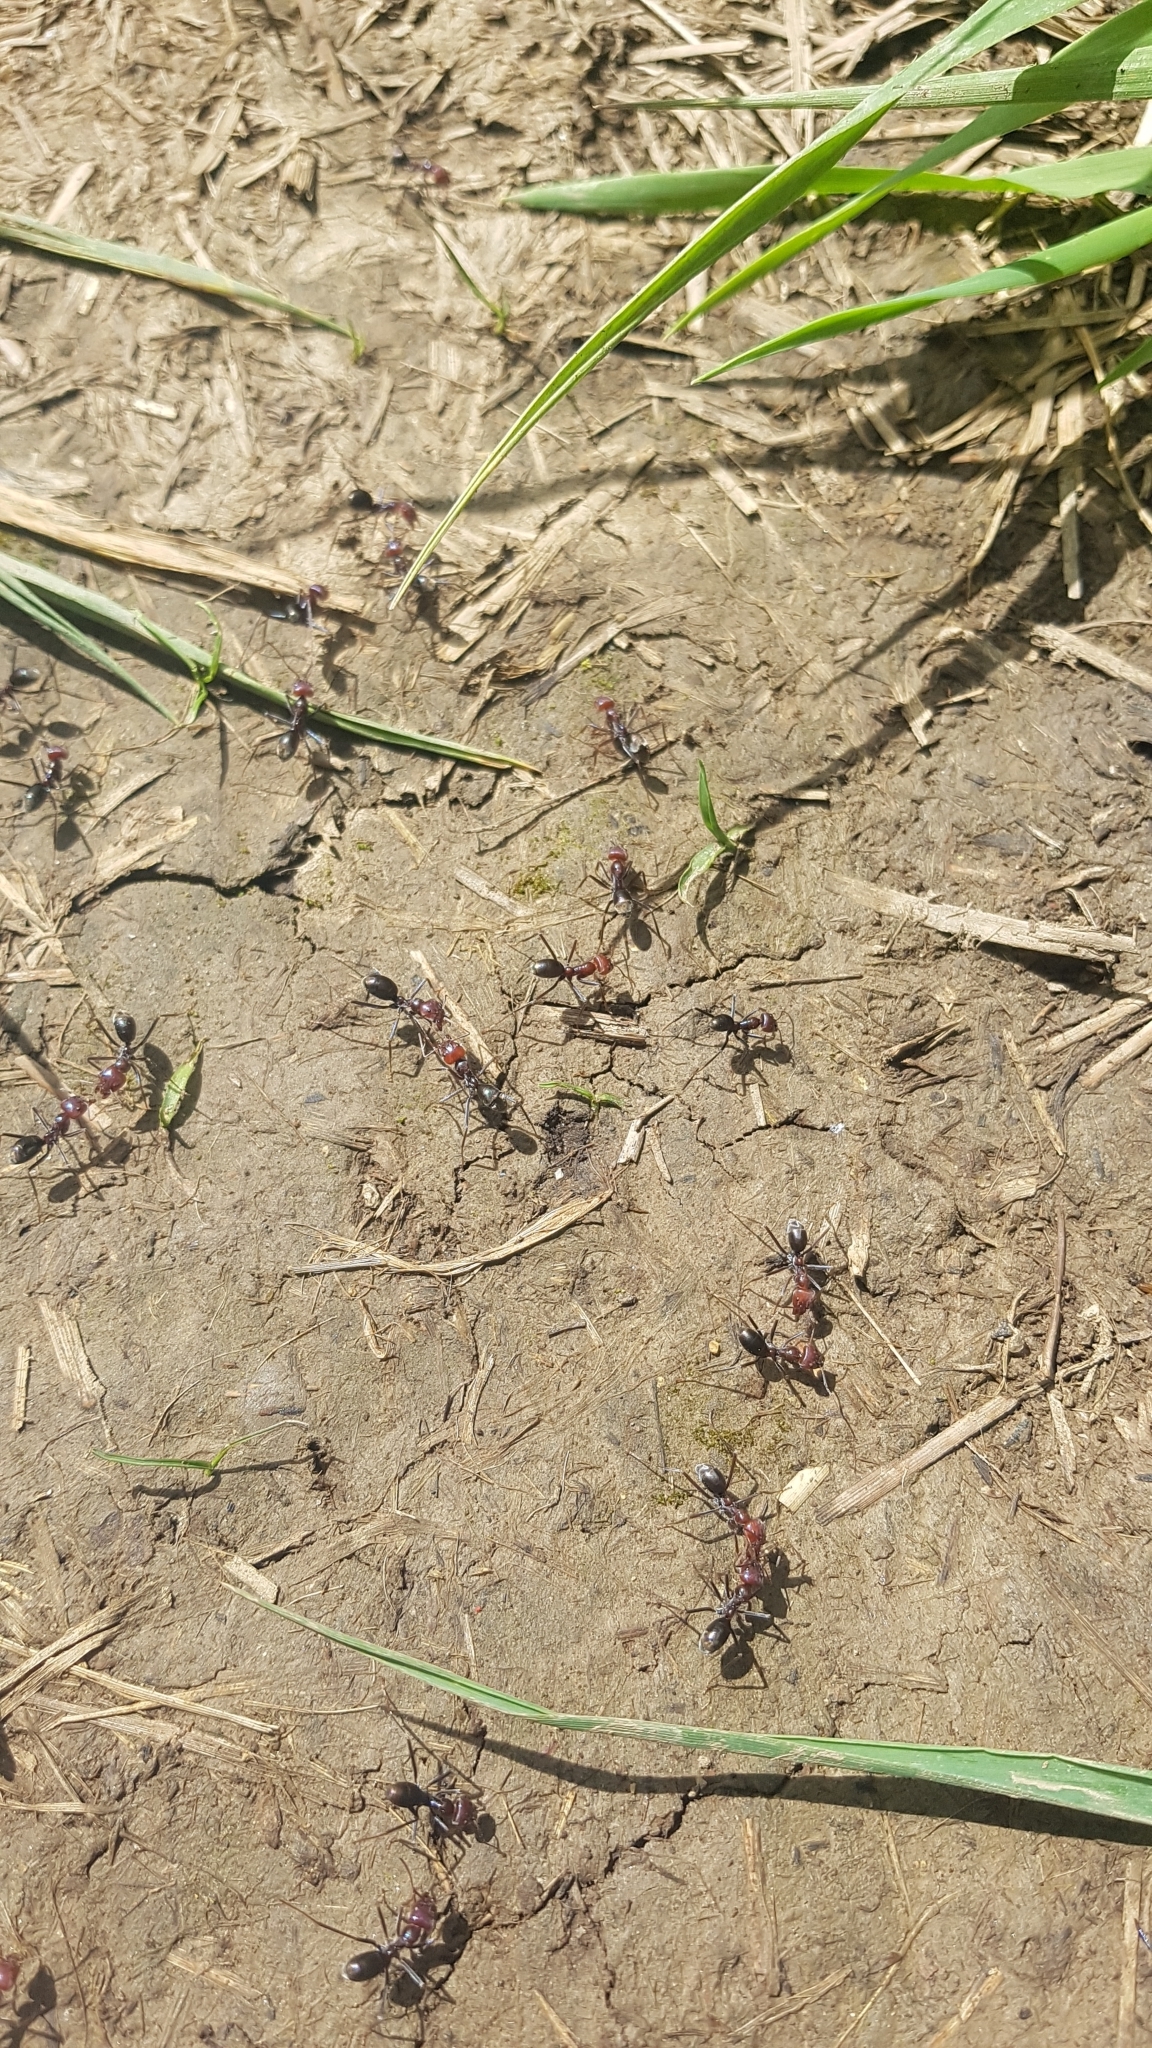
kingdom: Animalia
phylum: Arthropoda
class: Insecta
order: Hymenoptera
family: Formicidae
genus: Iridomyrmex
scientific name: Iridomyrmex purpureus
